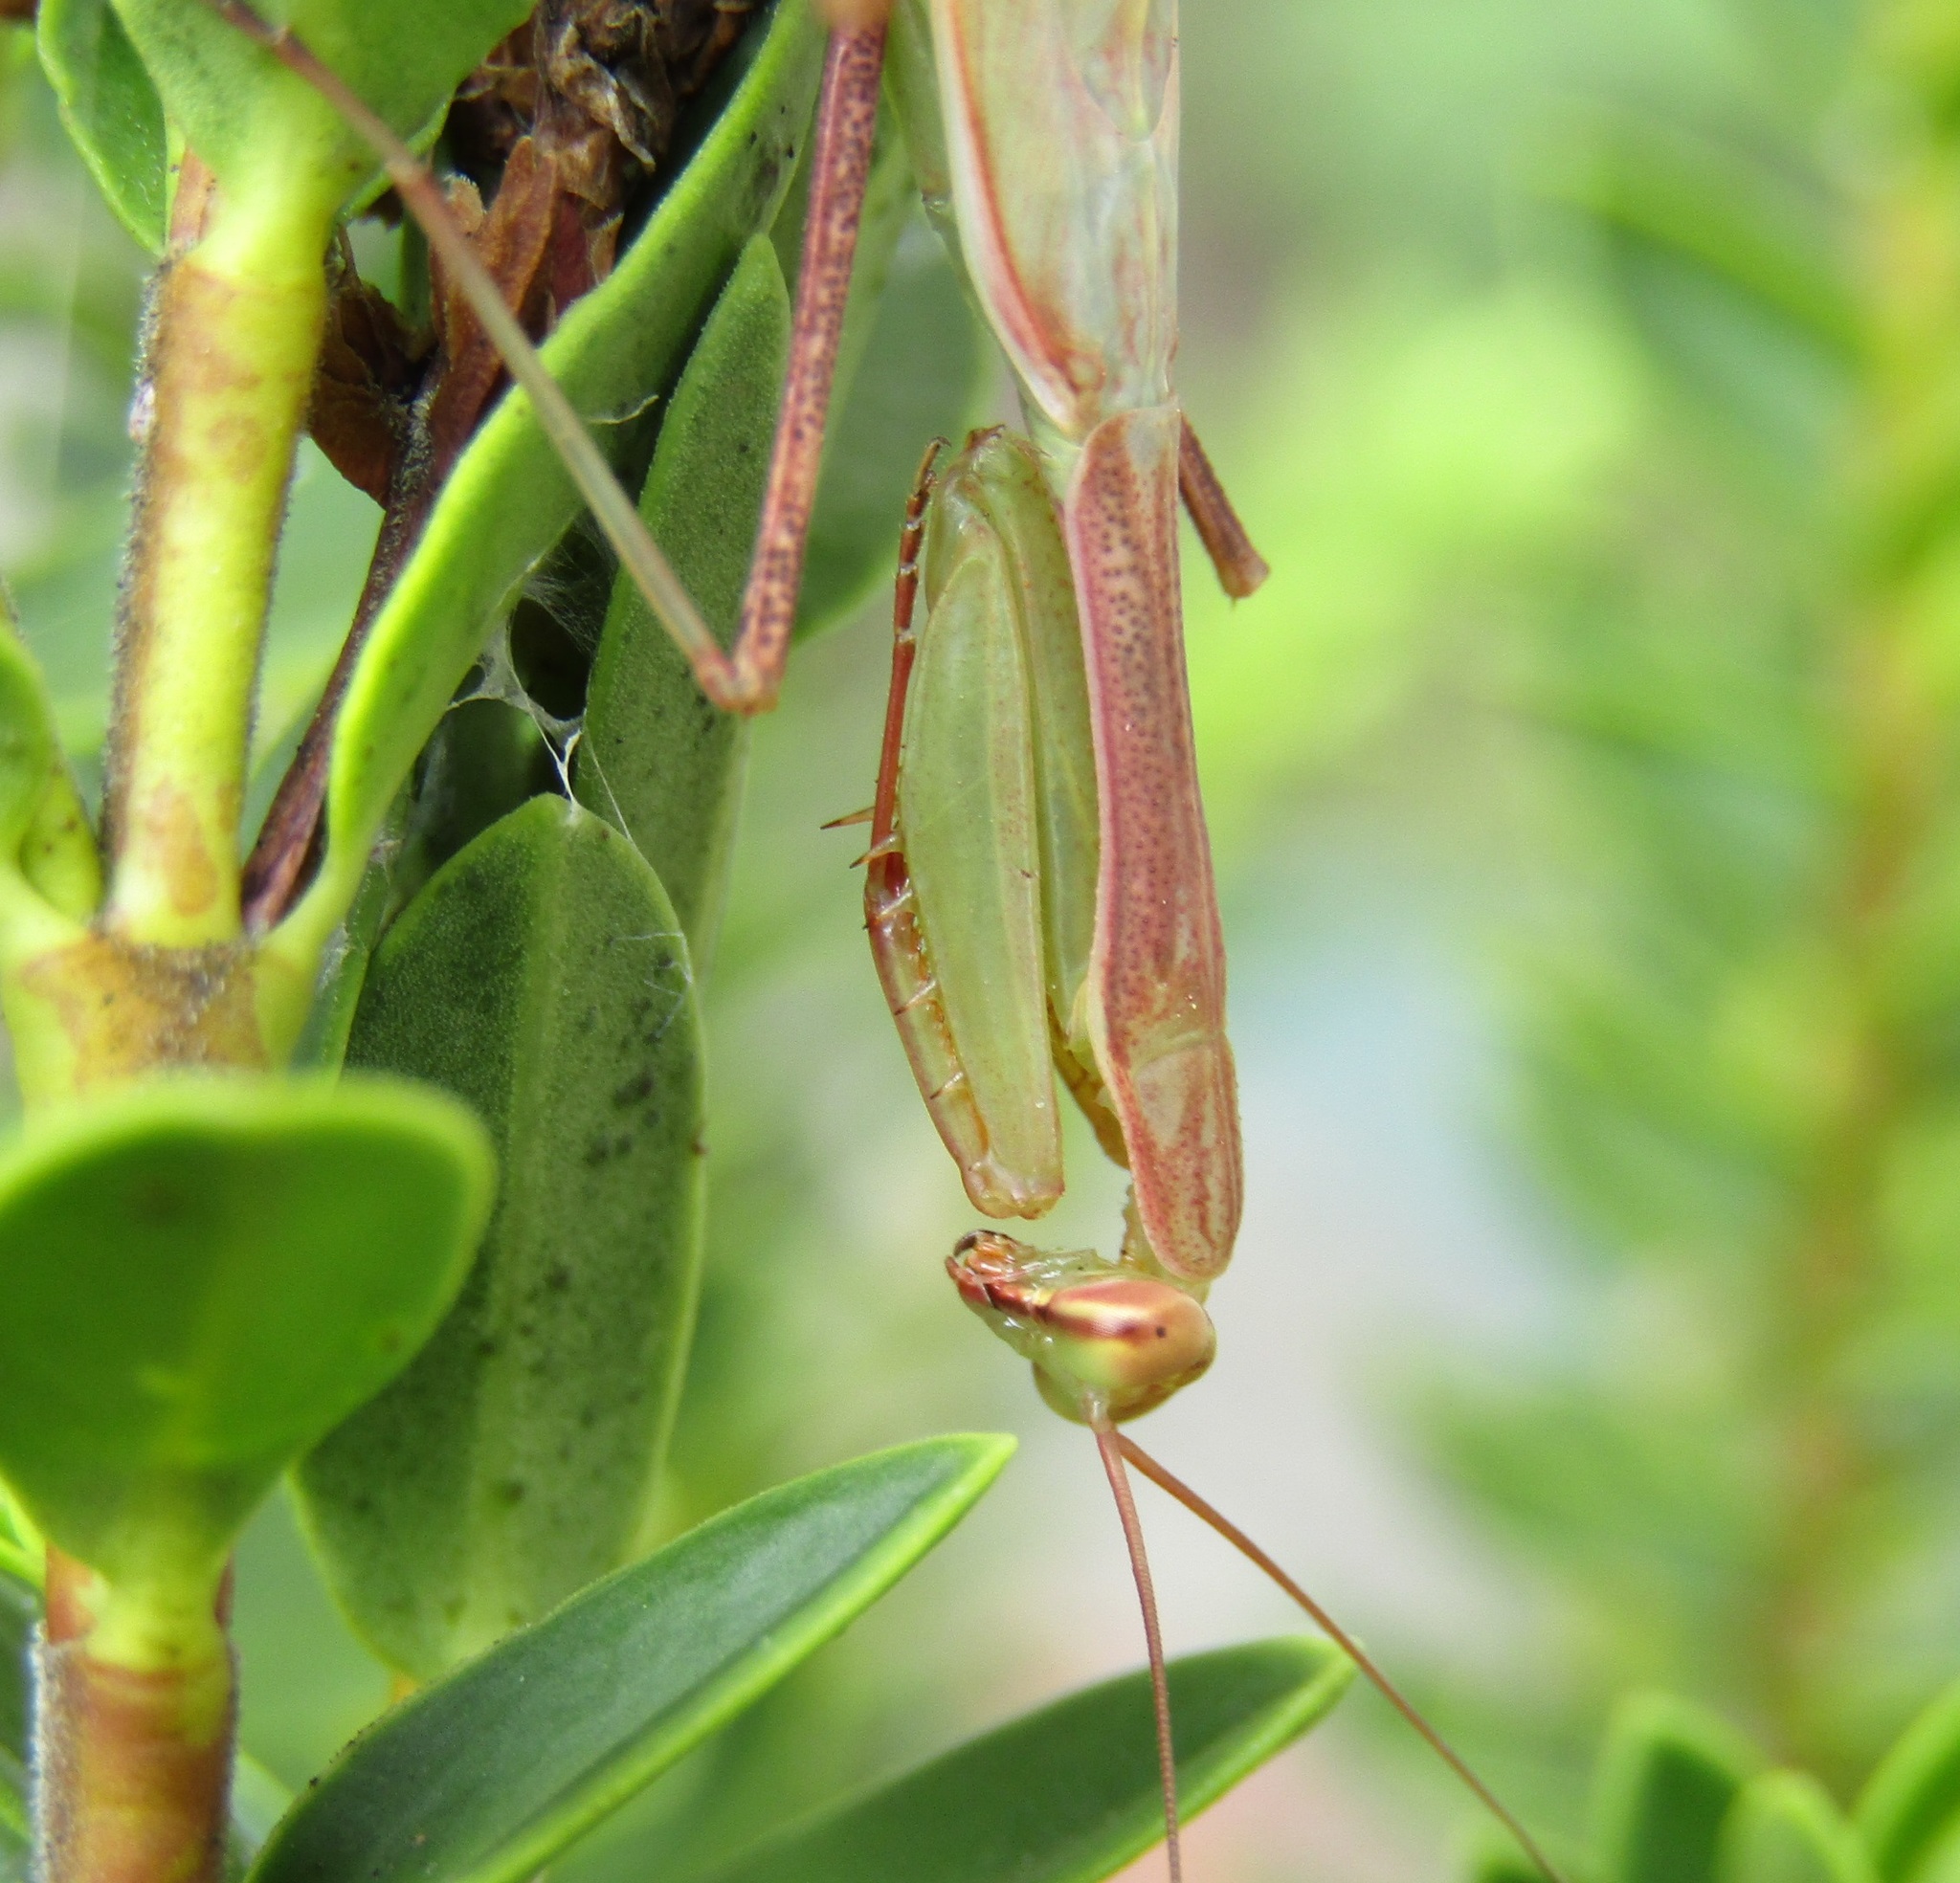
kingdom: Animalia
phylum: Arthropoda
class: Insecta
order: Mantodea
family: Miomantidae
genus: Miomantis
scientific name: Miomantis caffra
